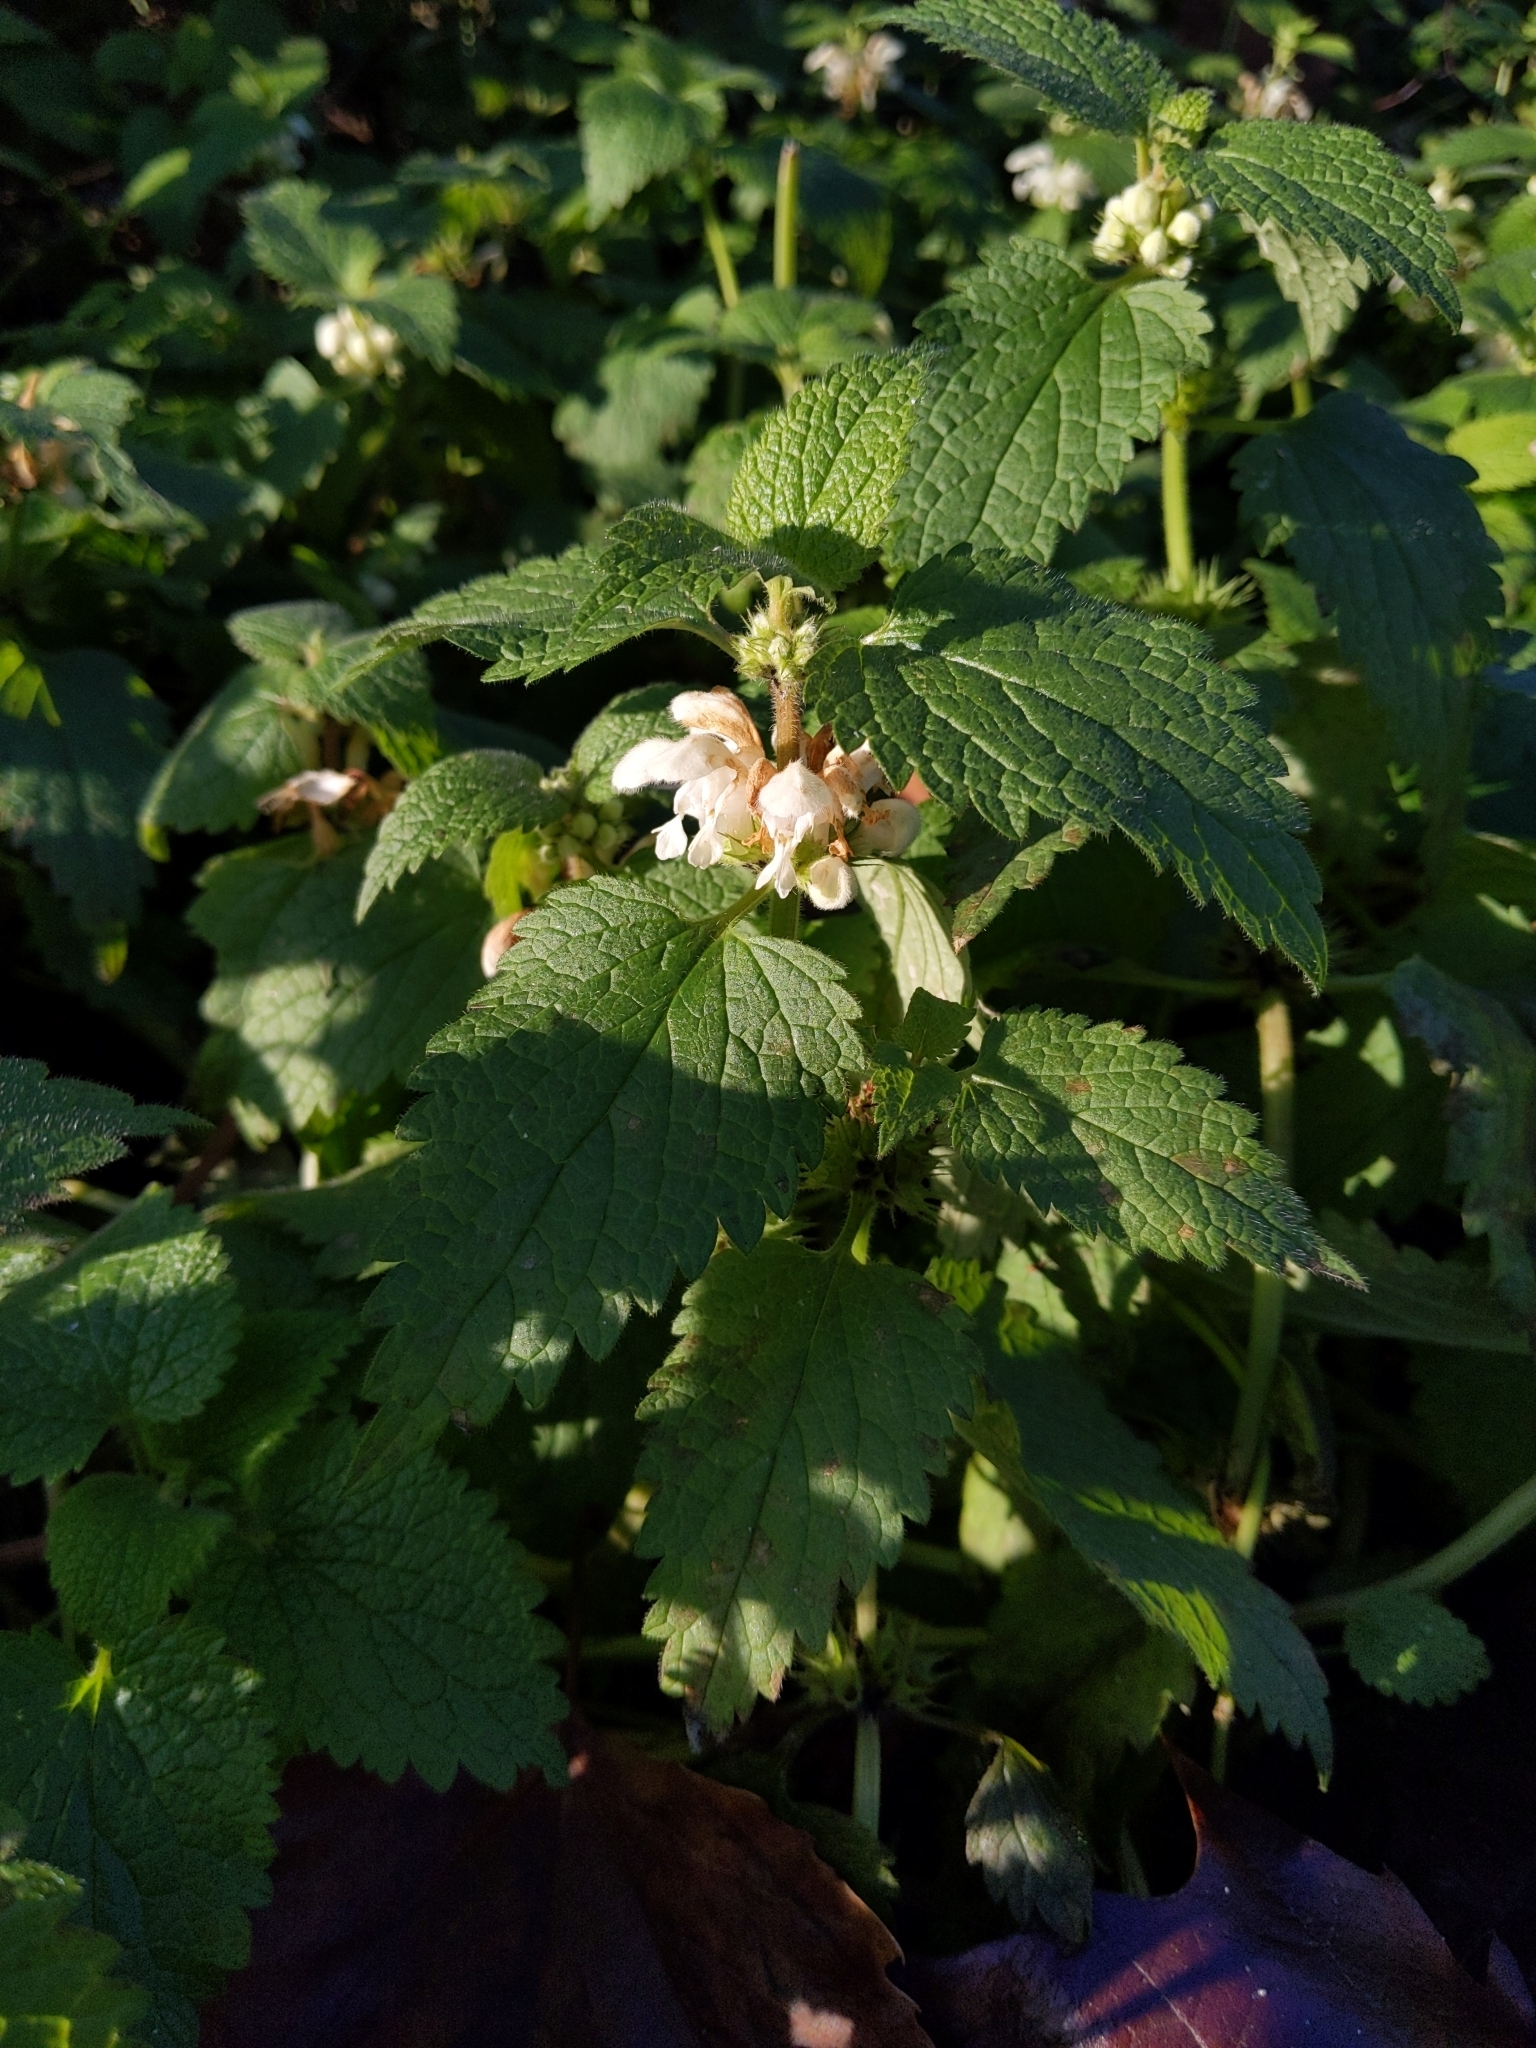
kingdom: Plantae
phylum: Tracheophyta
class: Magnoliopsida
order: Lamiales
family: Lamiaceae
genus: Lamium
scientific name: Lamium album
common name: White dead-nettle
